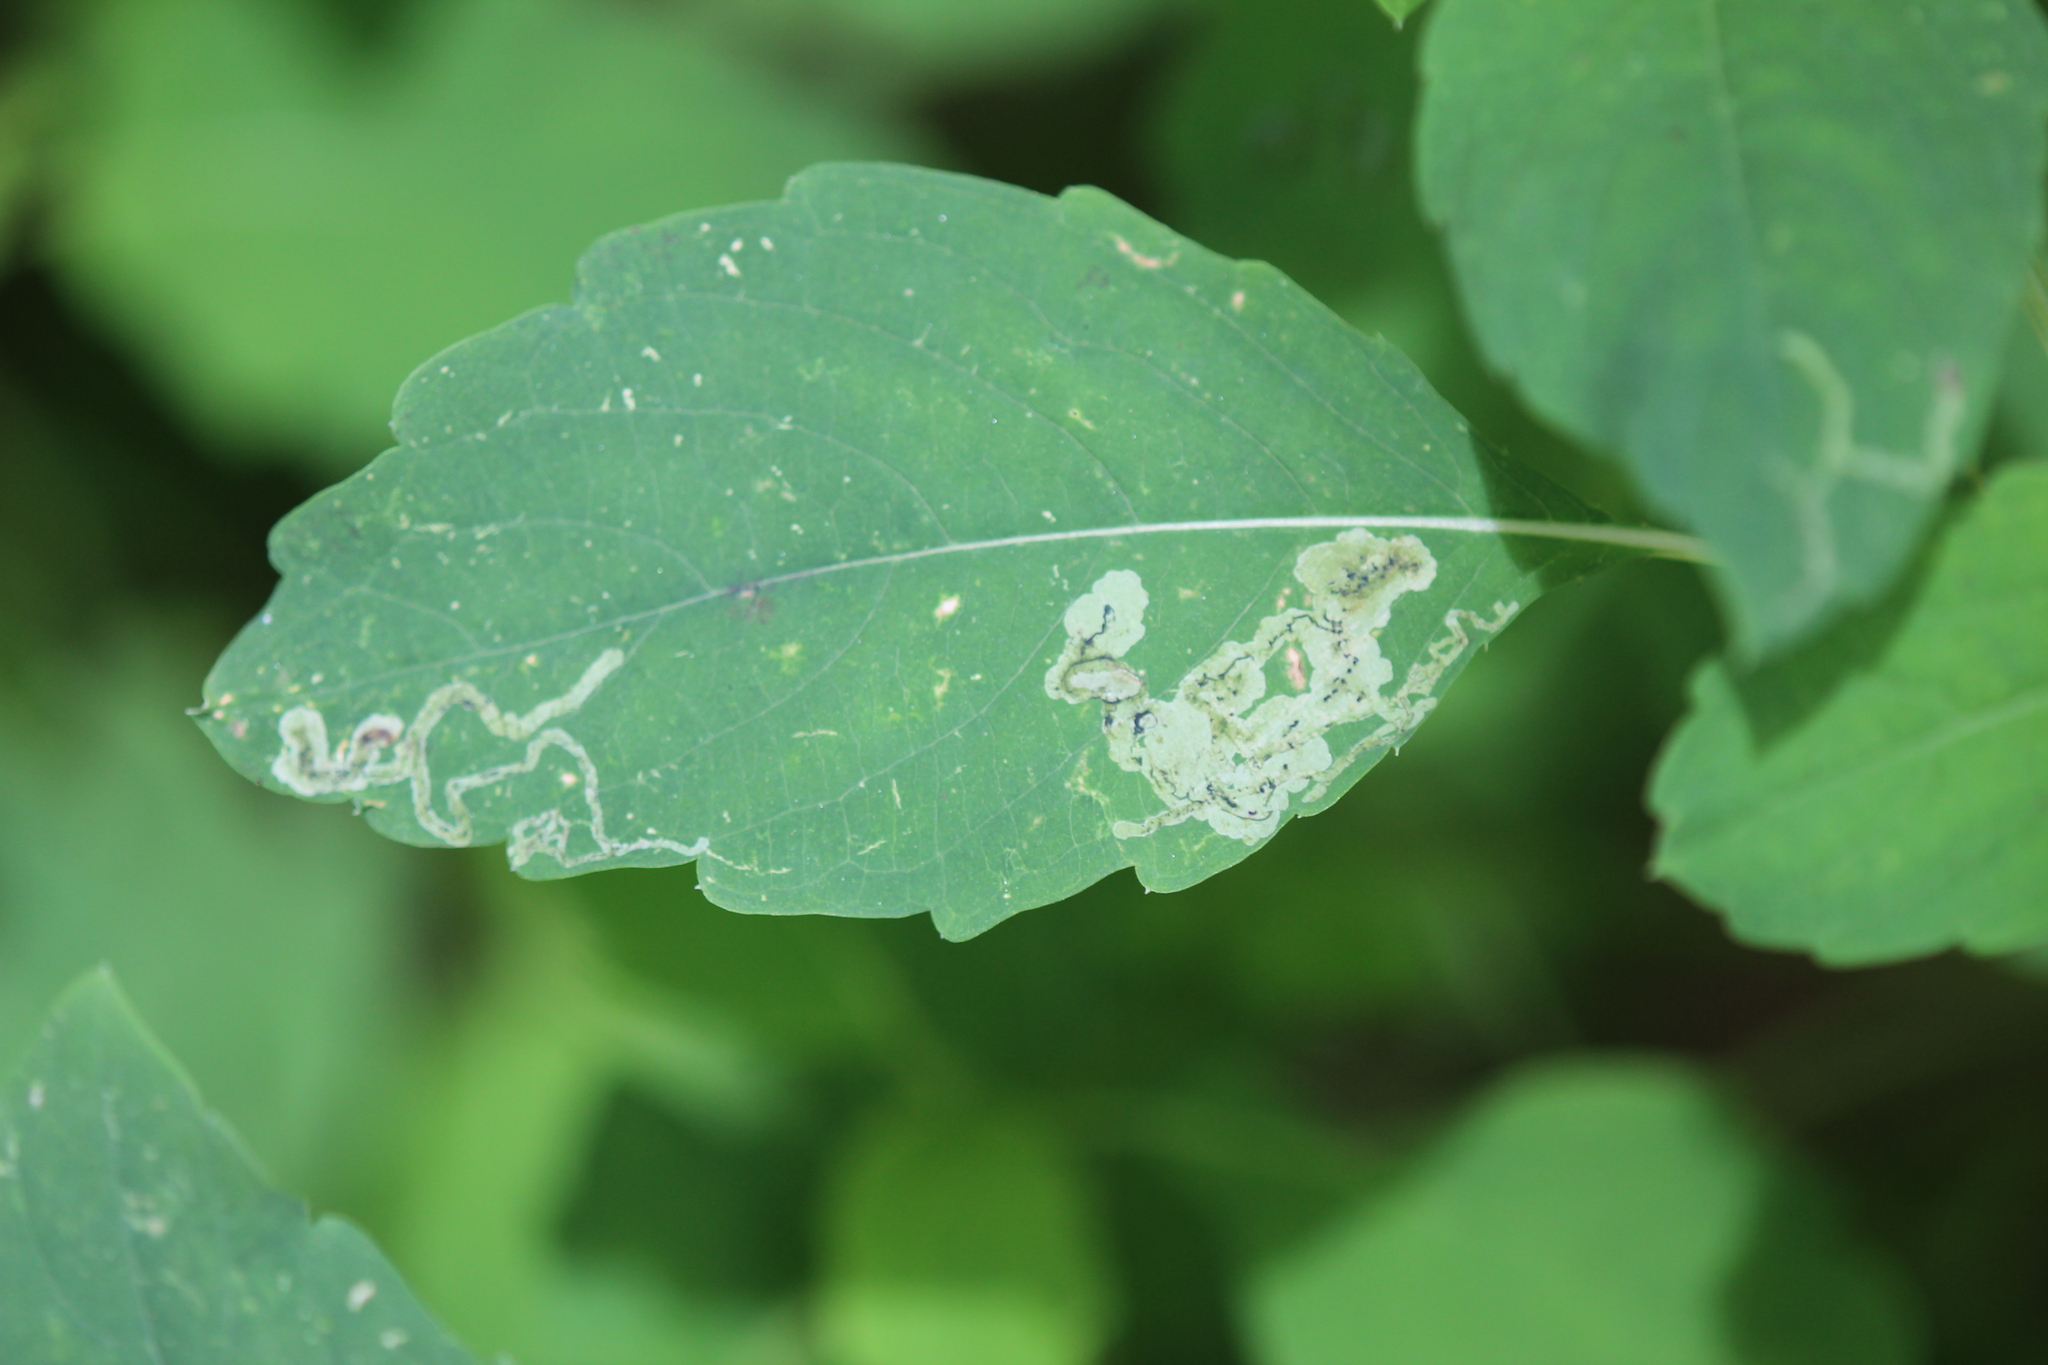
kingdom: Animalia
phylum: Arthropoda
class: Insecta
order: Diptera
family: Agromyzidae
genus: Phytoliriomyza
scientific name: Phytoliriomyza melampyga
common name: Jewelweed leaf-miner fly
